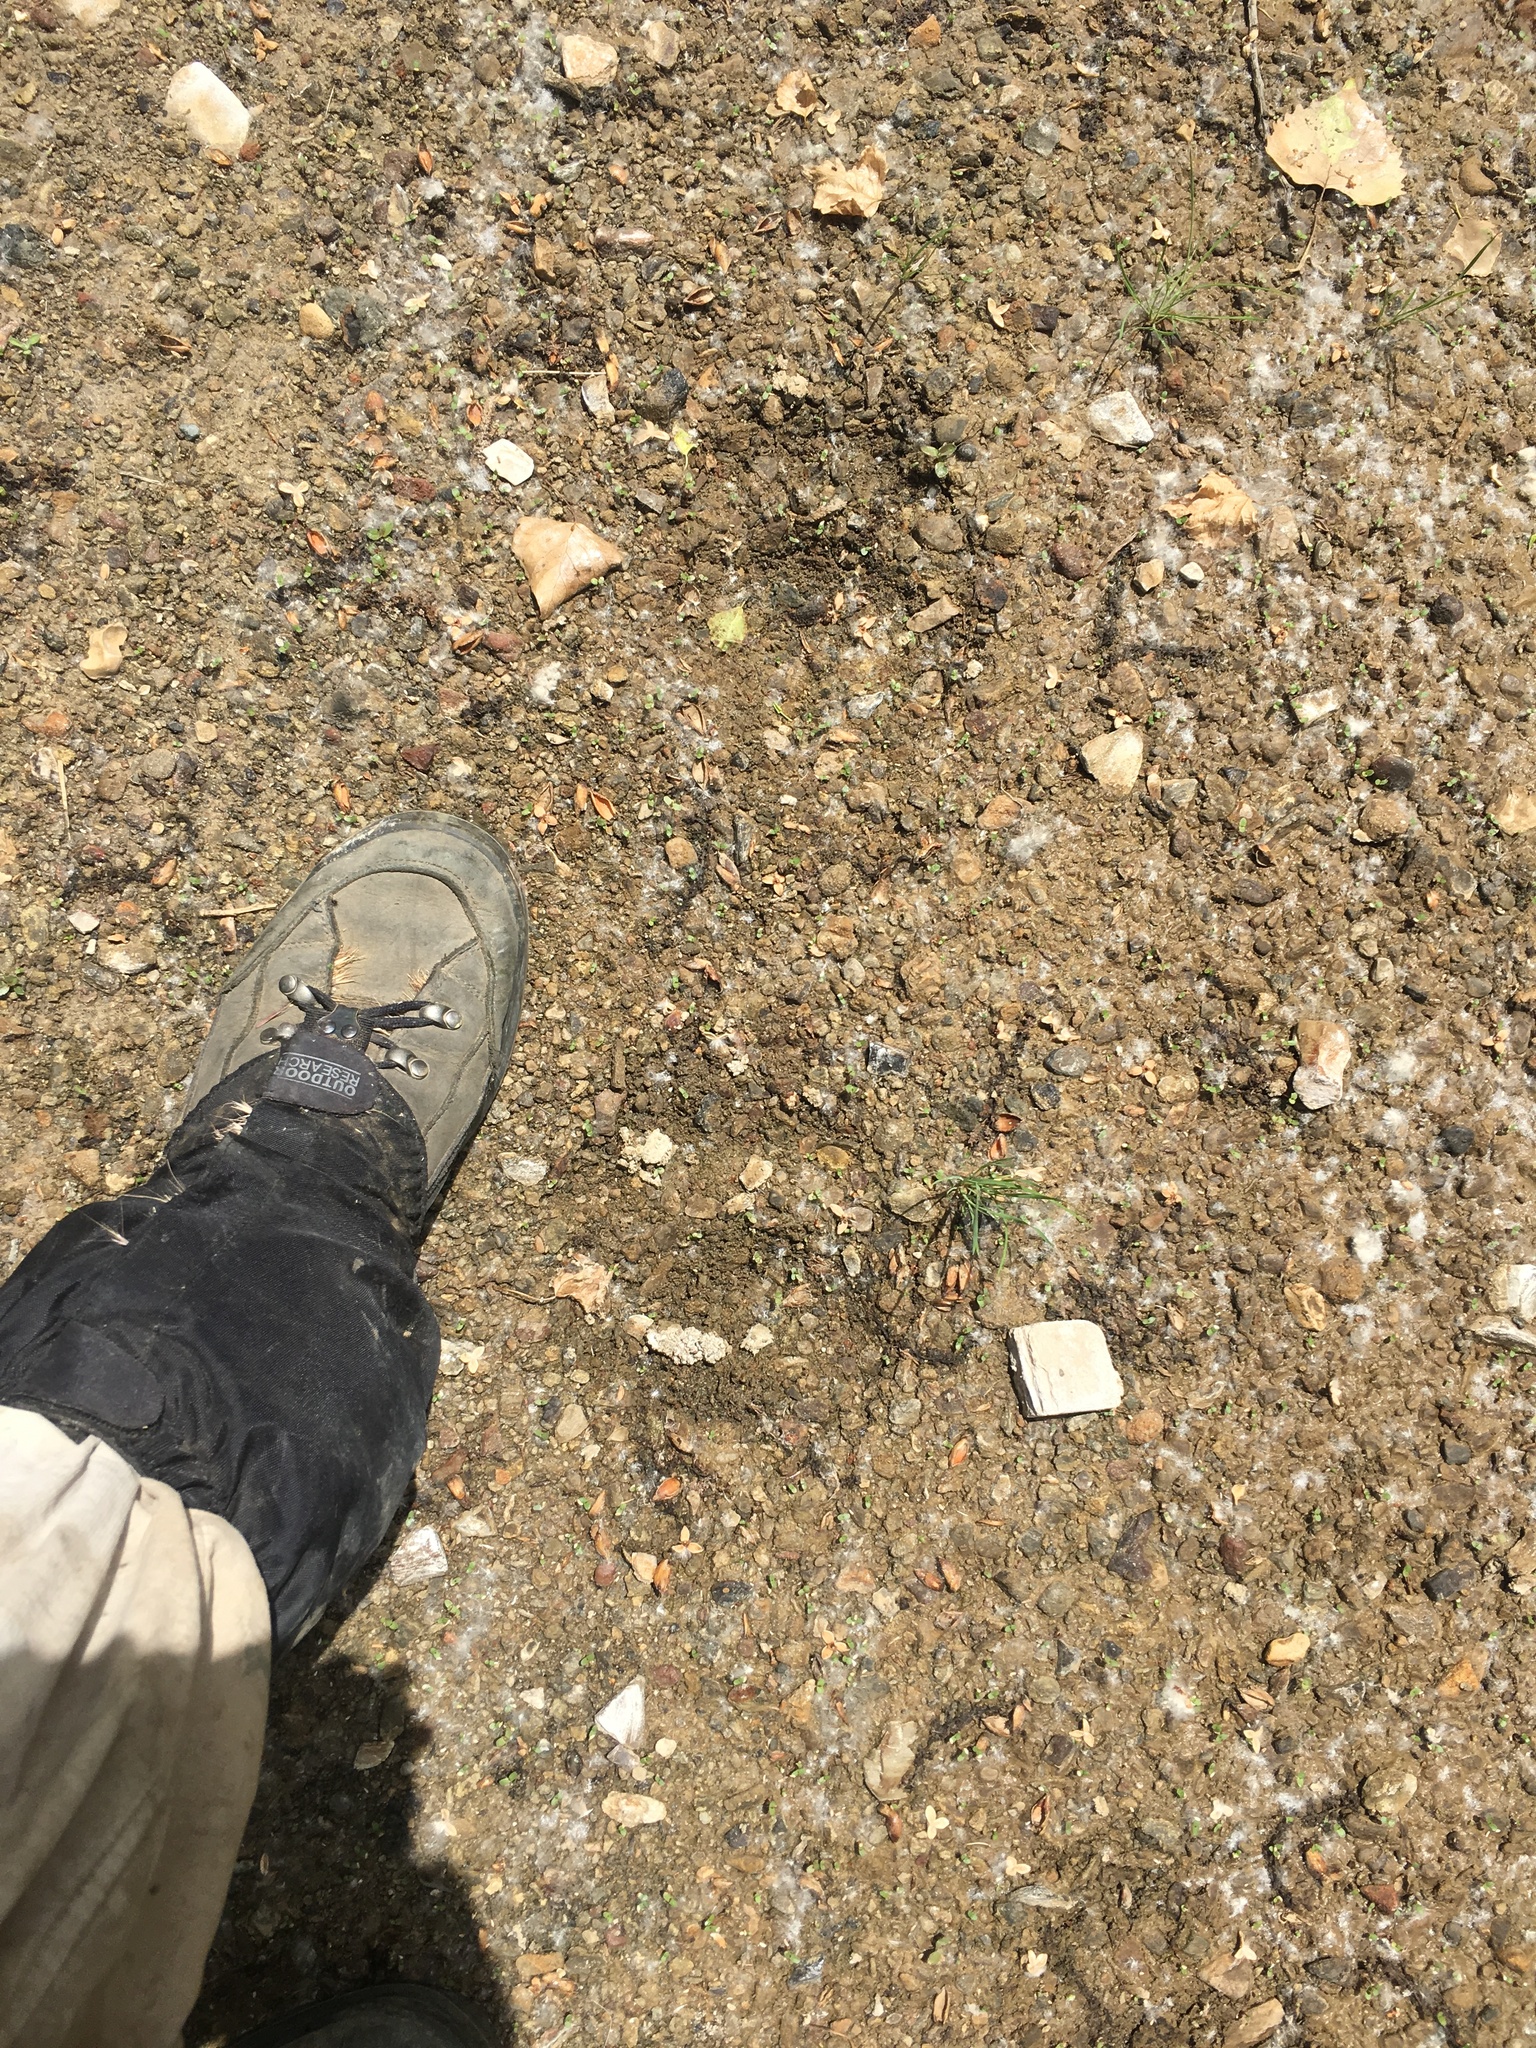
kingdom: Animalia
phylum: Chordata
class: Mammalia
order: Carnivora
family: Ursidae
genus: Ursus
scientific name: Ursus americanus
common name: American black bear
